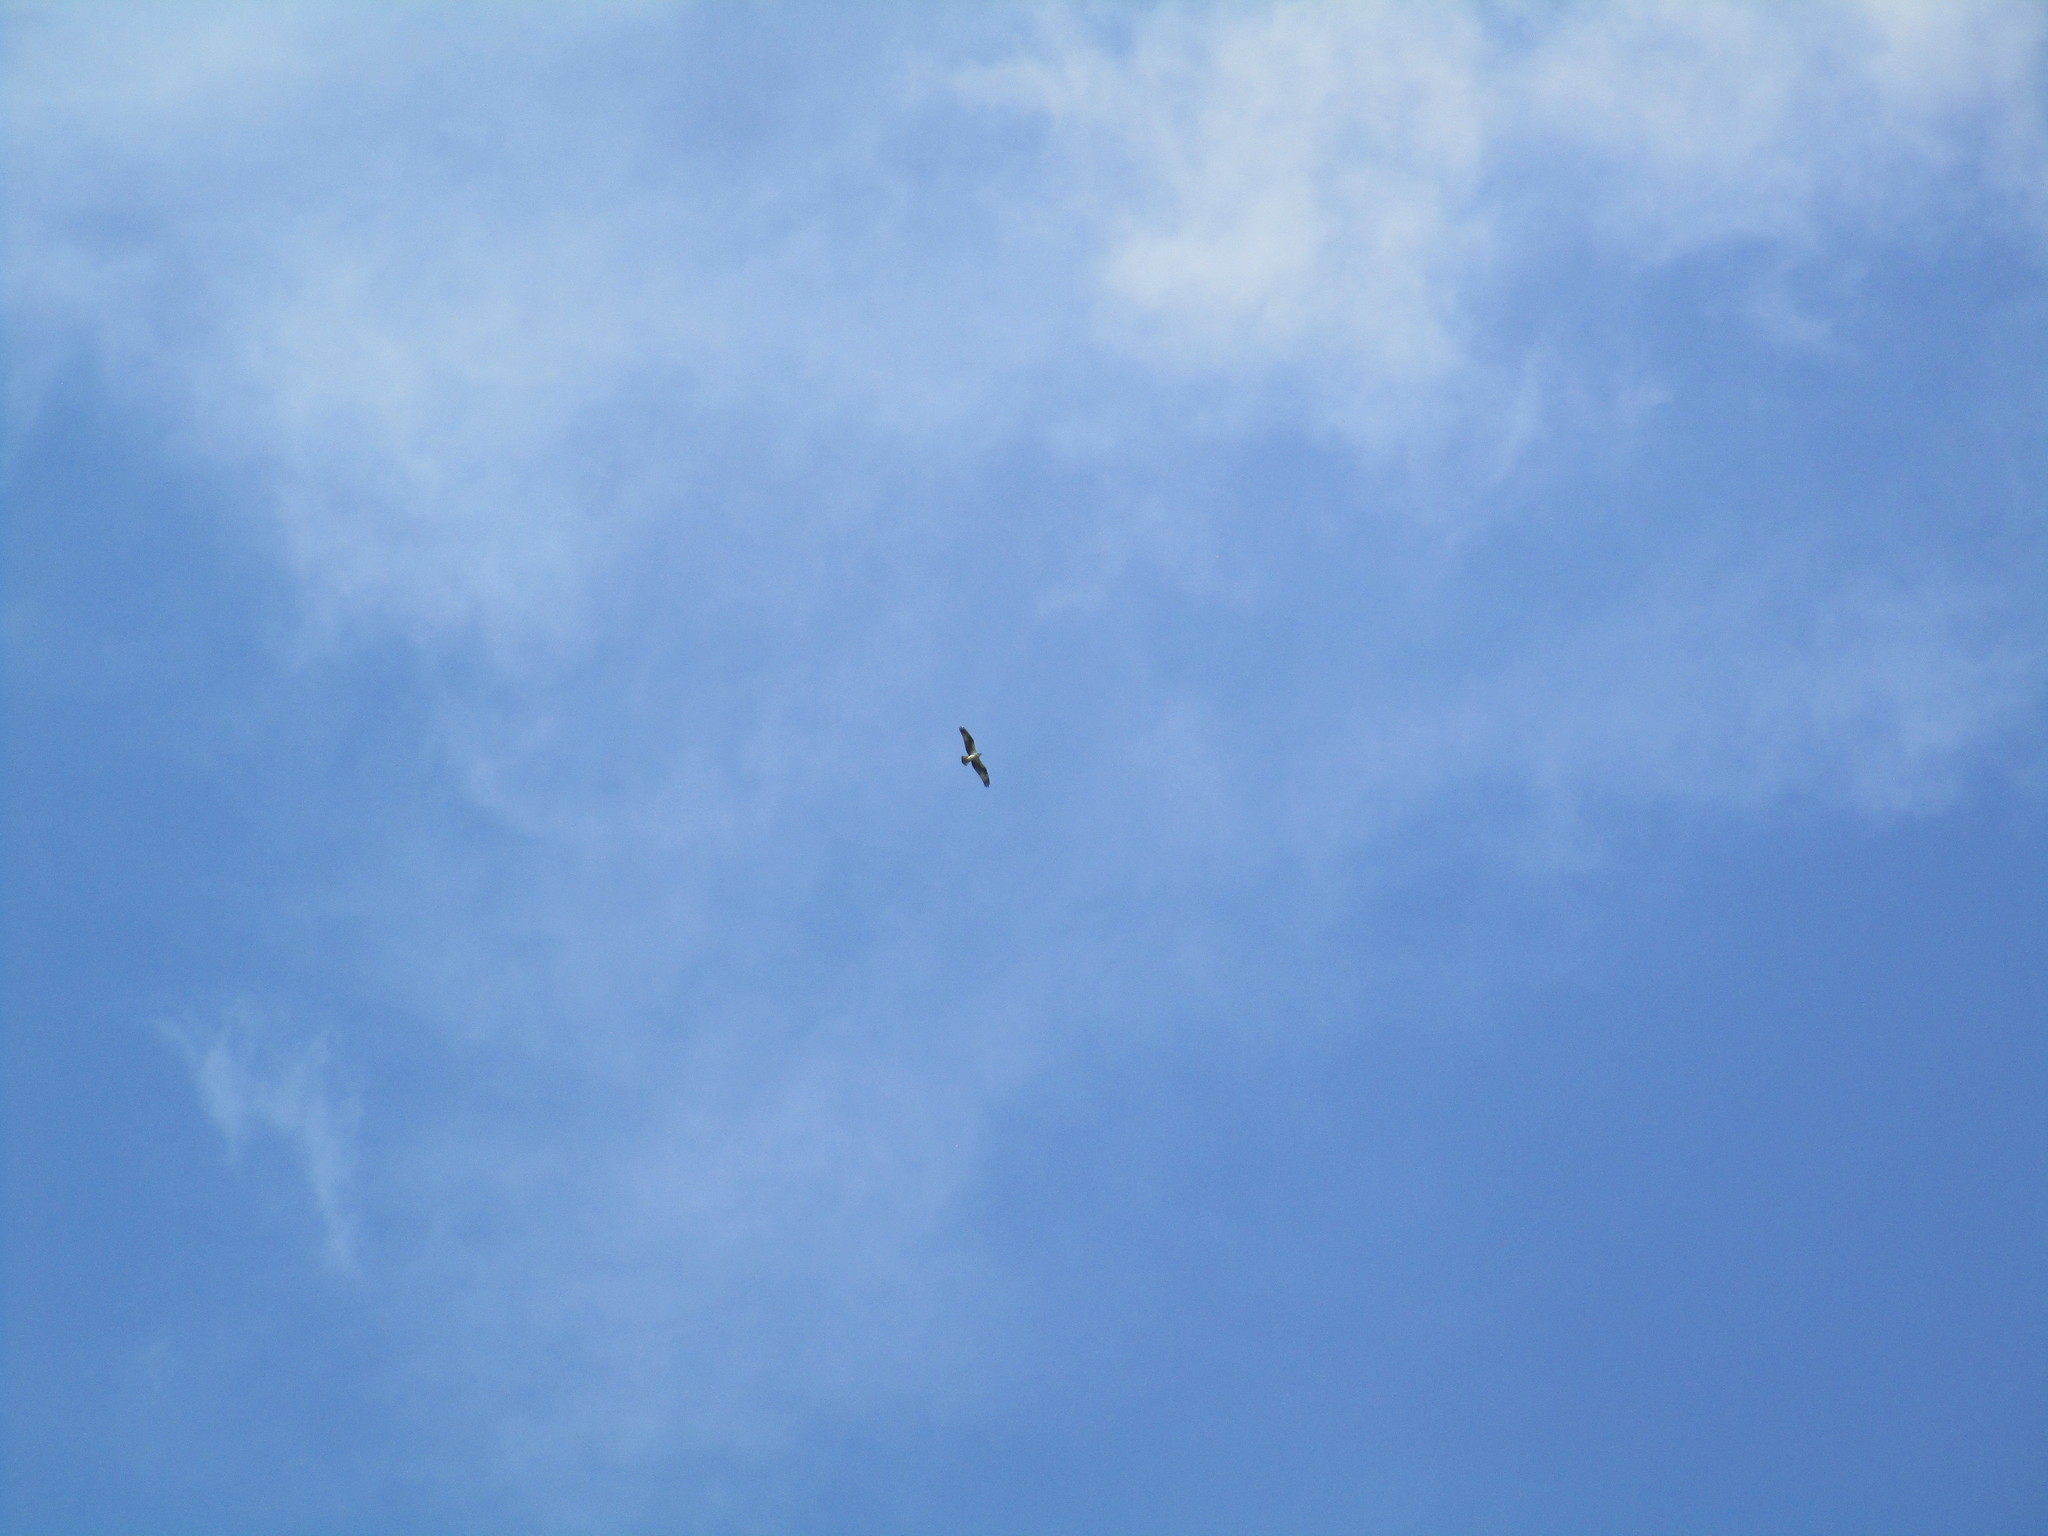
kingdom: Animalia
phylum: Chordata
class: Aves
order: Accipitriformes
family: Pandionidae
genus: Pandion
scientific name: Pandion haliaetus
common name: Osprey
